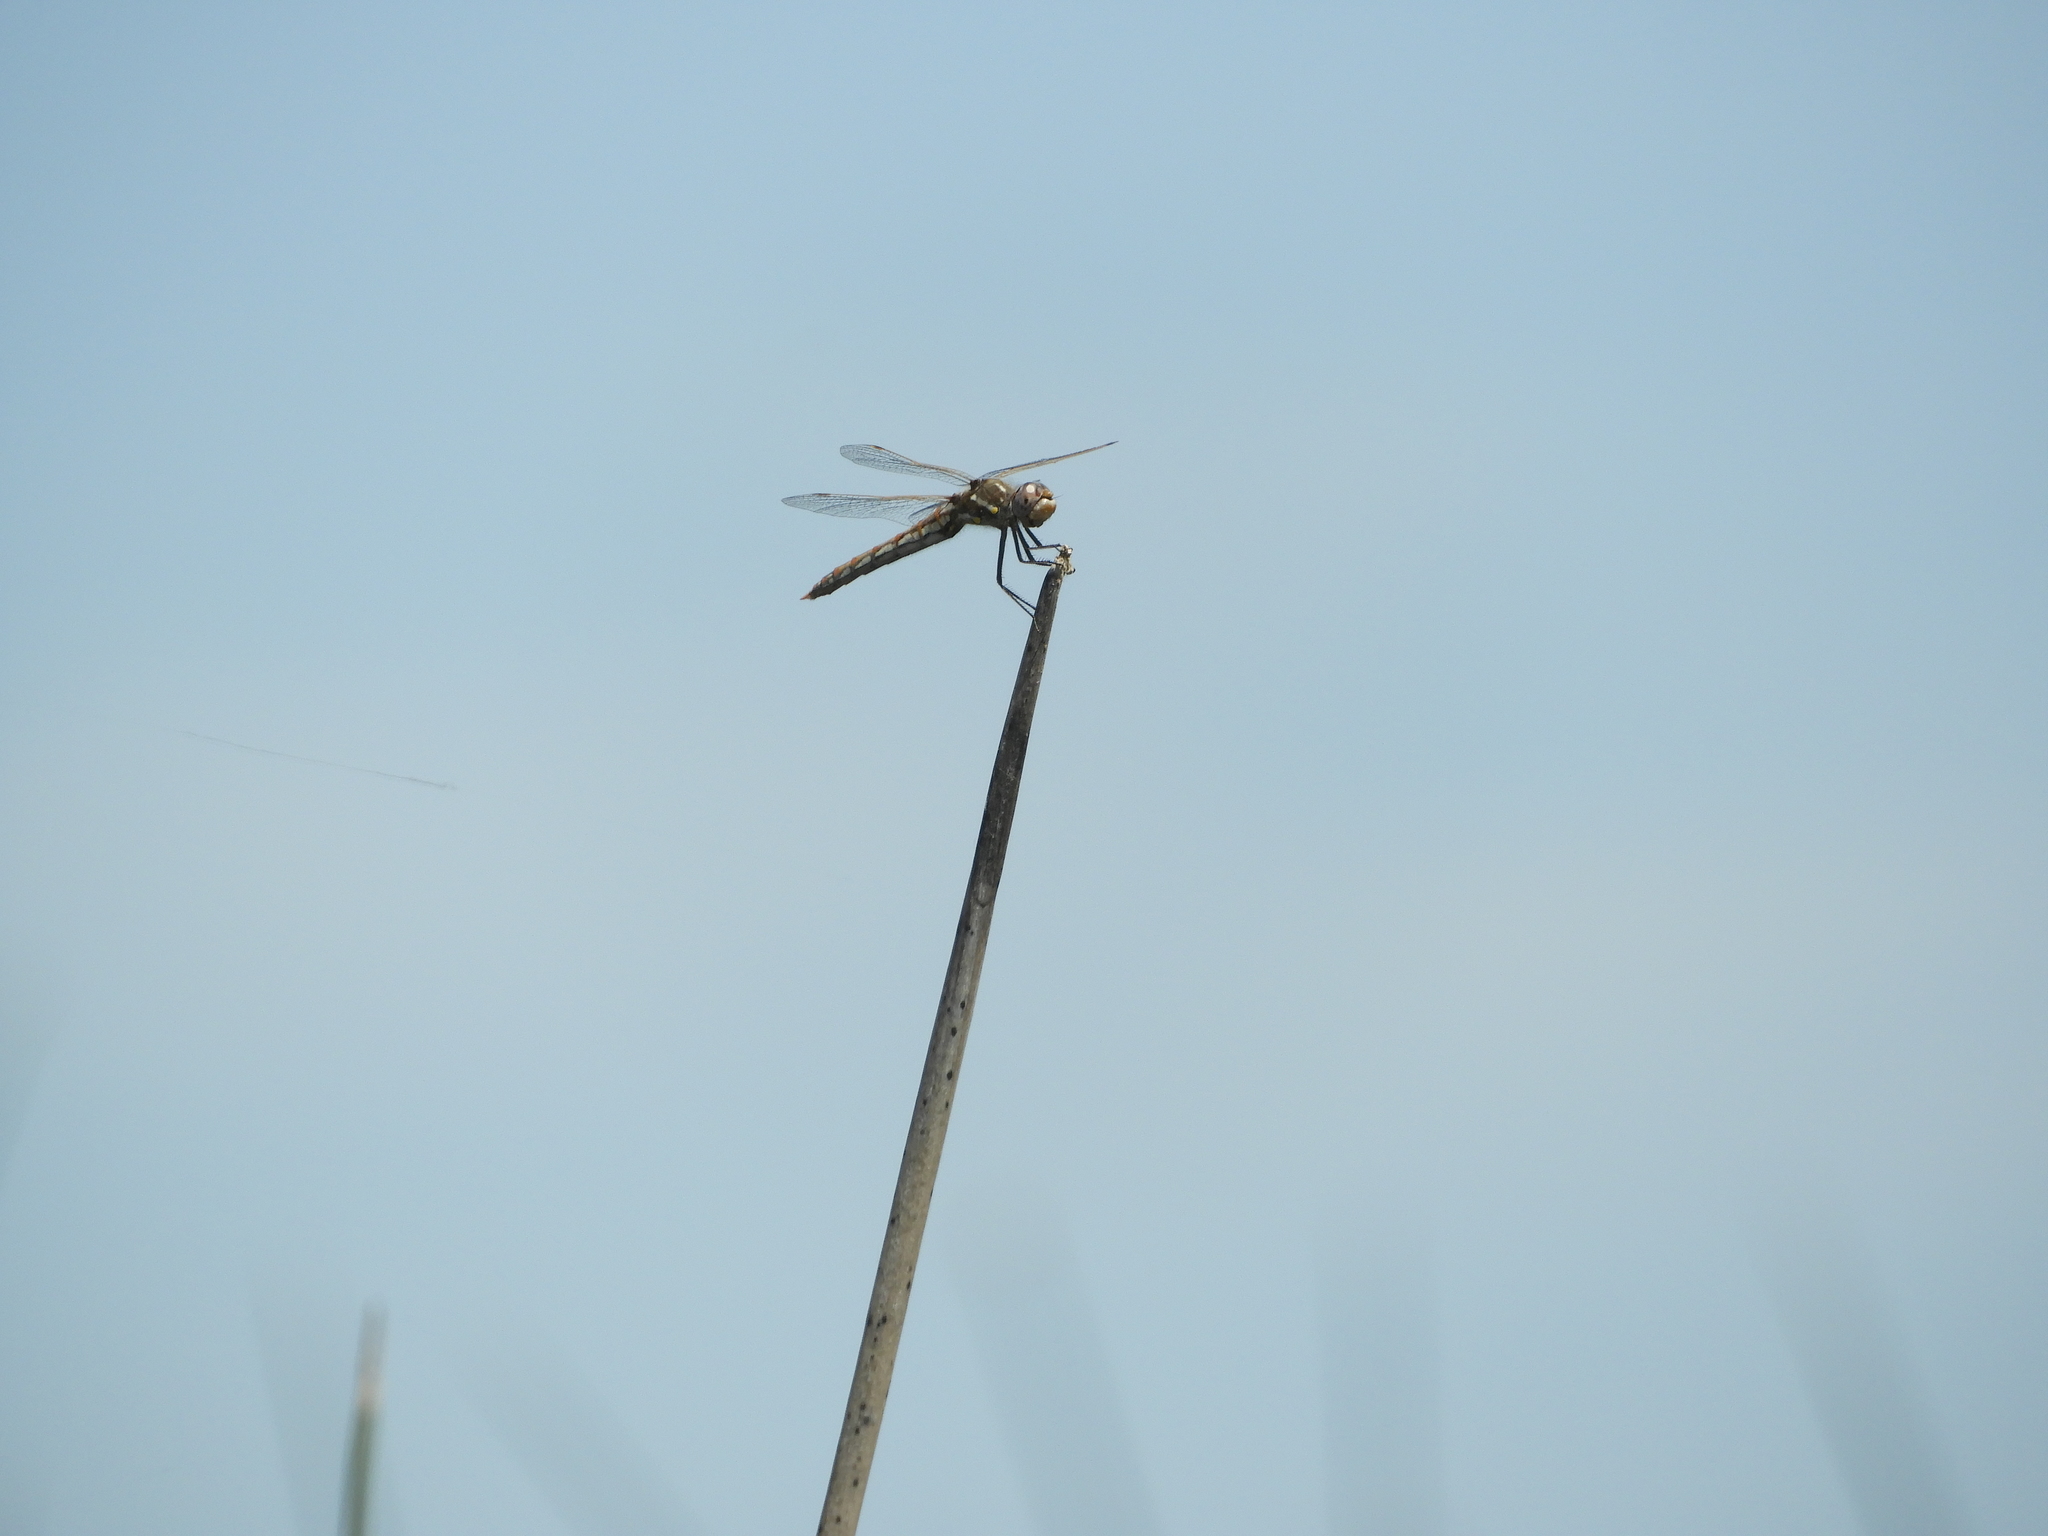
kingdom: Animalia
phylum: Arthropoda
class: Insecta
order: Odonata
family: Libellulidae
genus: Sympetrum
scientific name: Sympetrum corruptum
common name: Variegated meadowhawk
